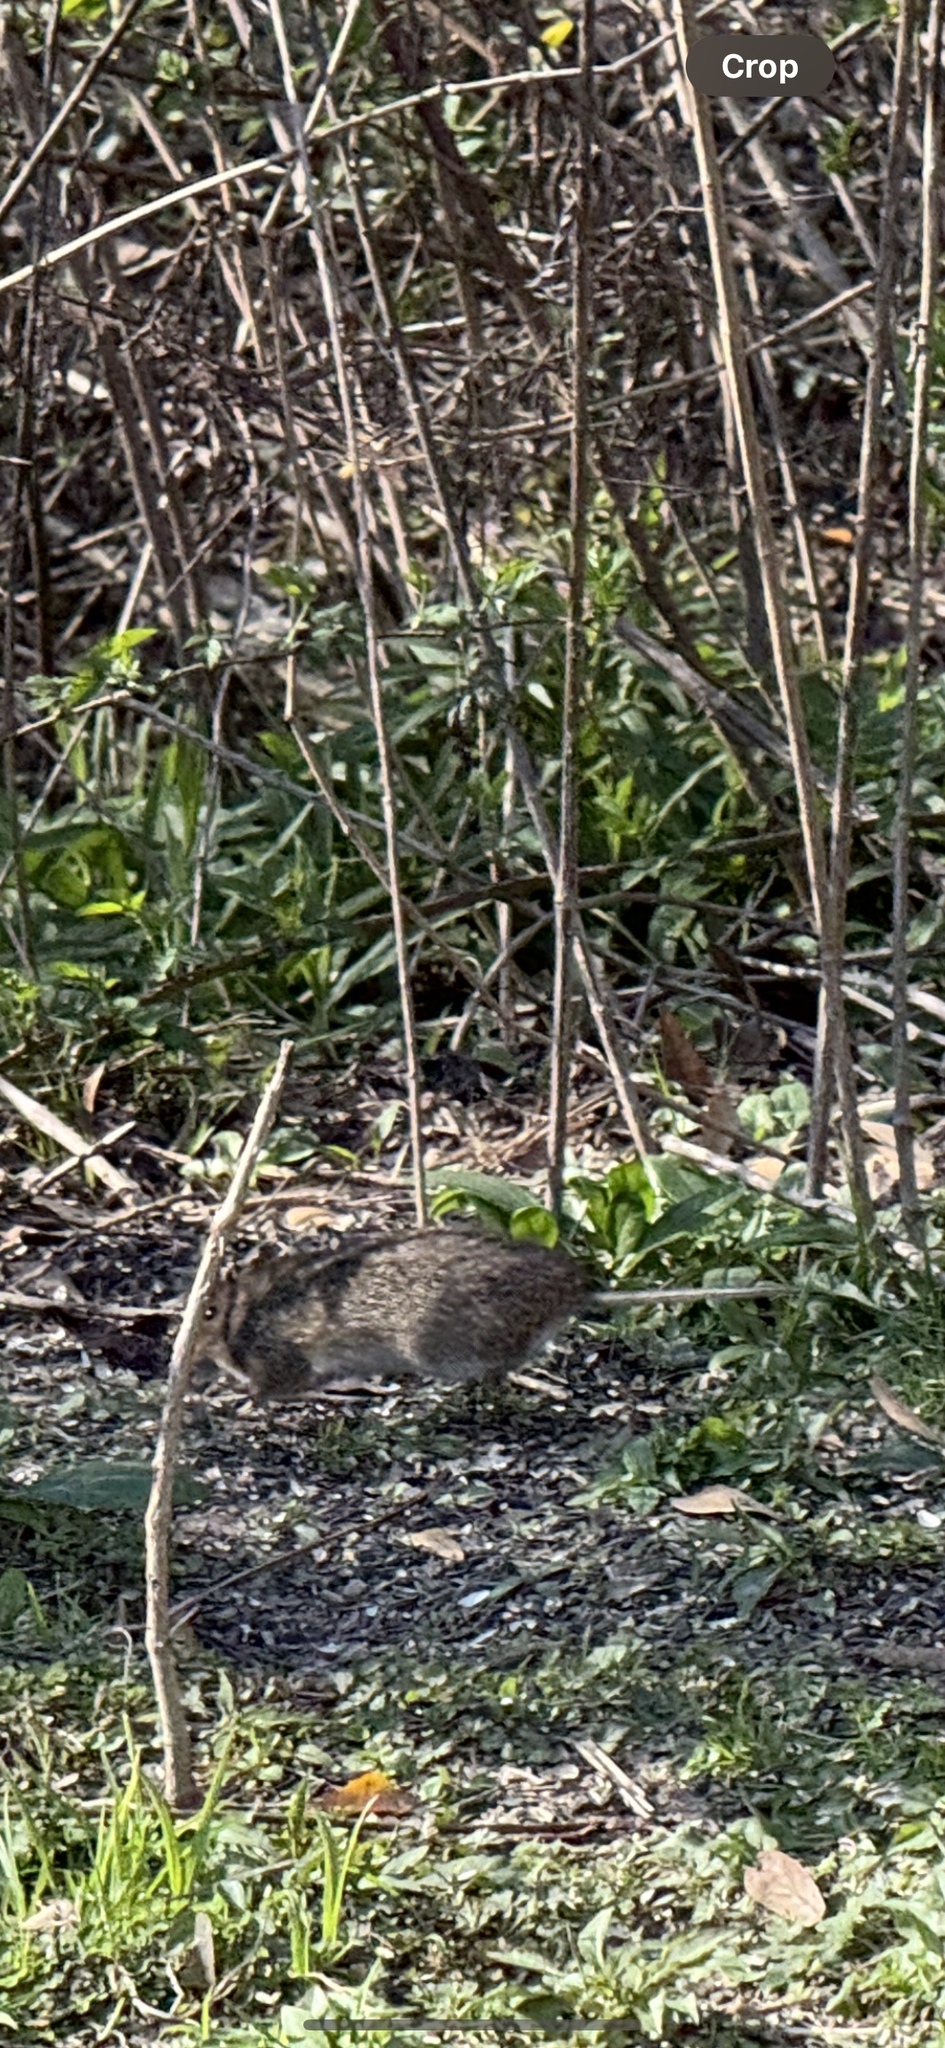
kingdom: Animalia
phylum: Chordata
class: Mammalia
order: Rodentia
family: Cricetidae
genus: Sigmodon
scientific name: Sigmodon hispidus
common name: Hispid cotton rat
